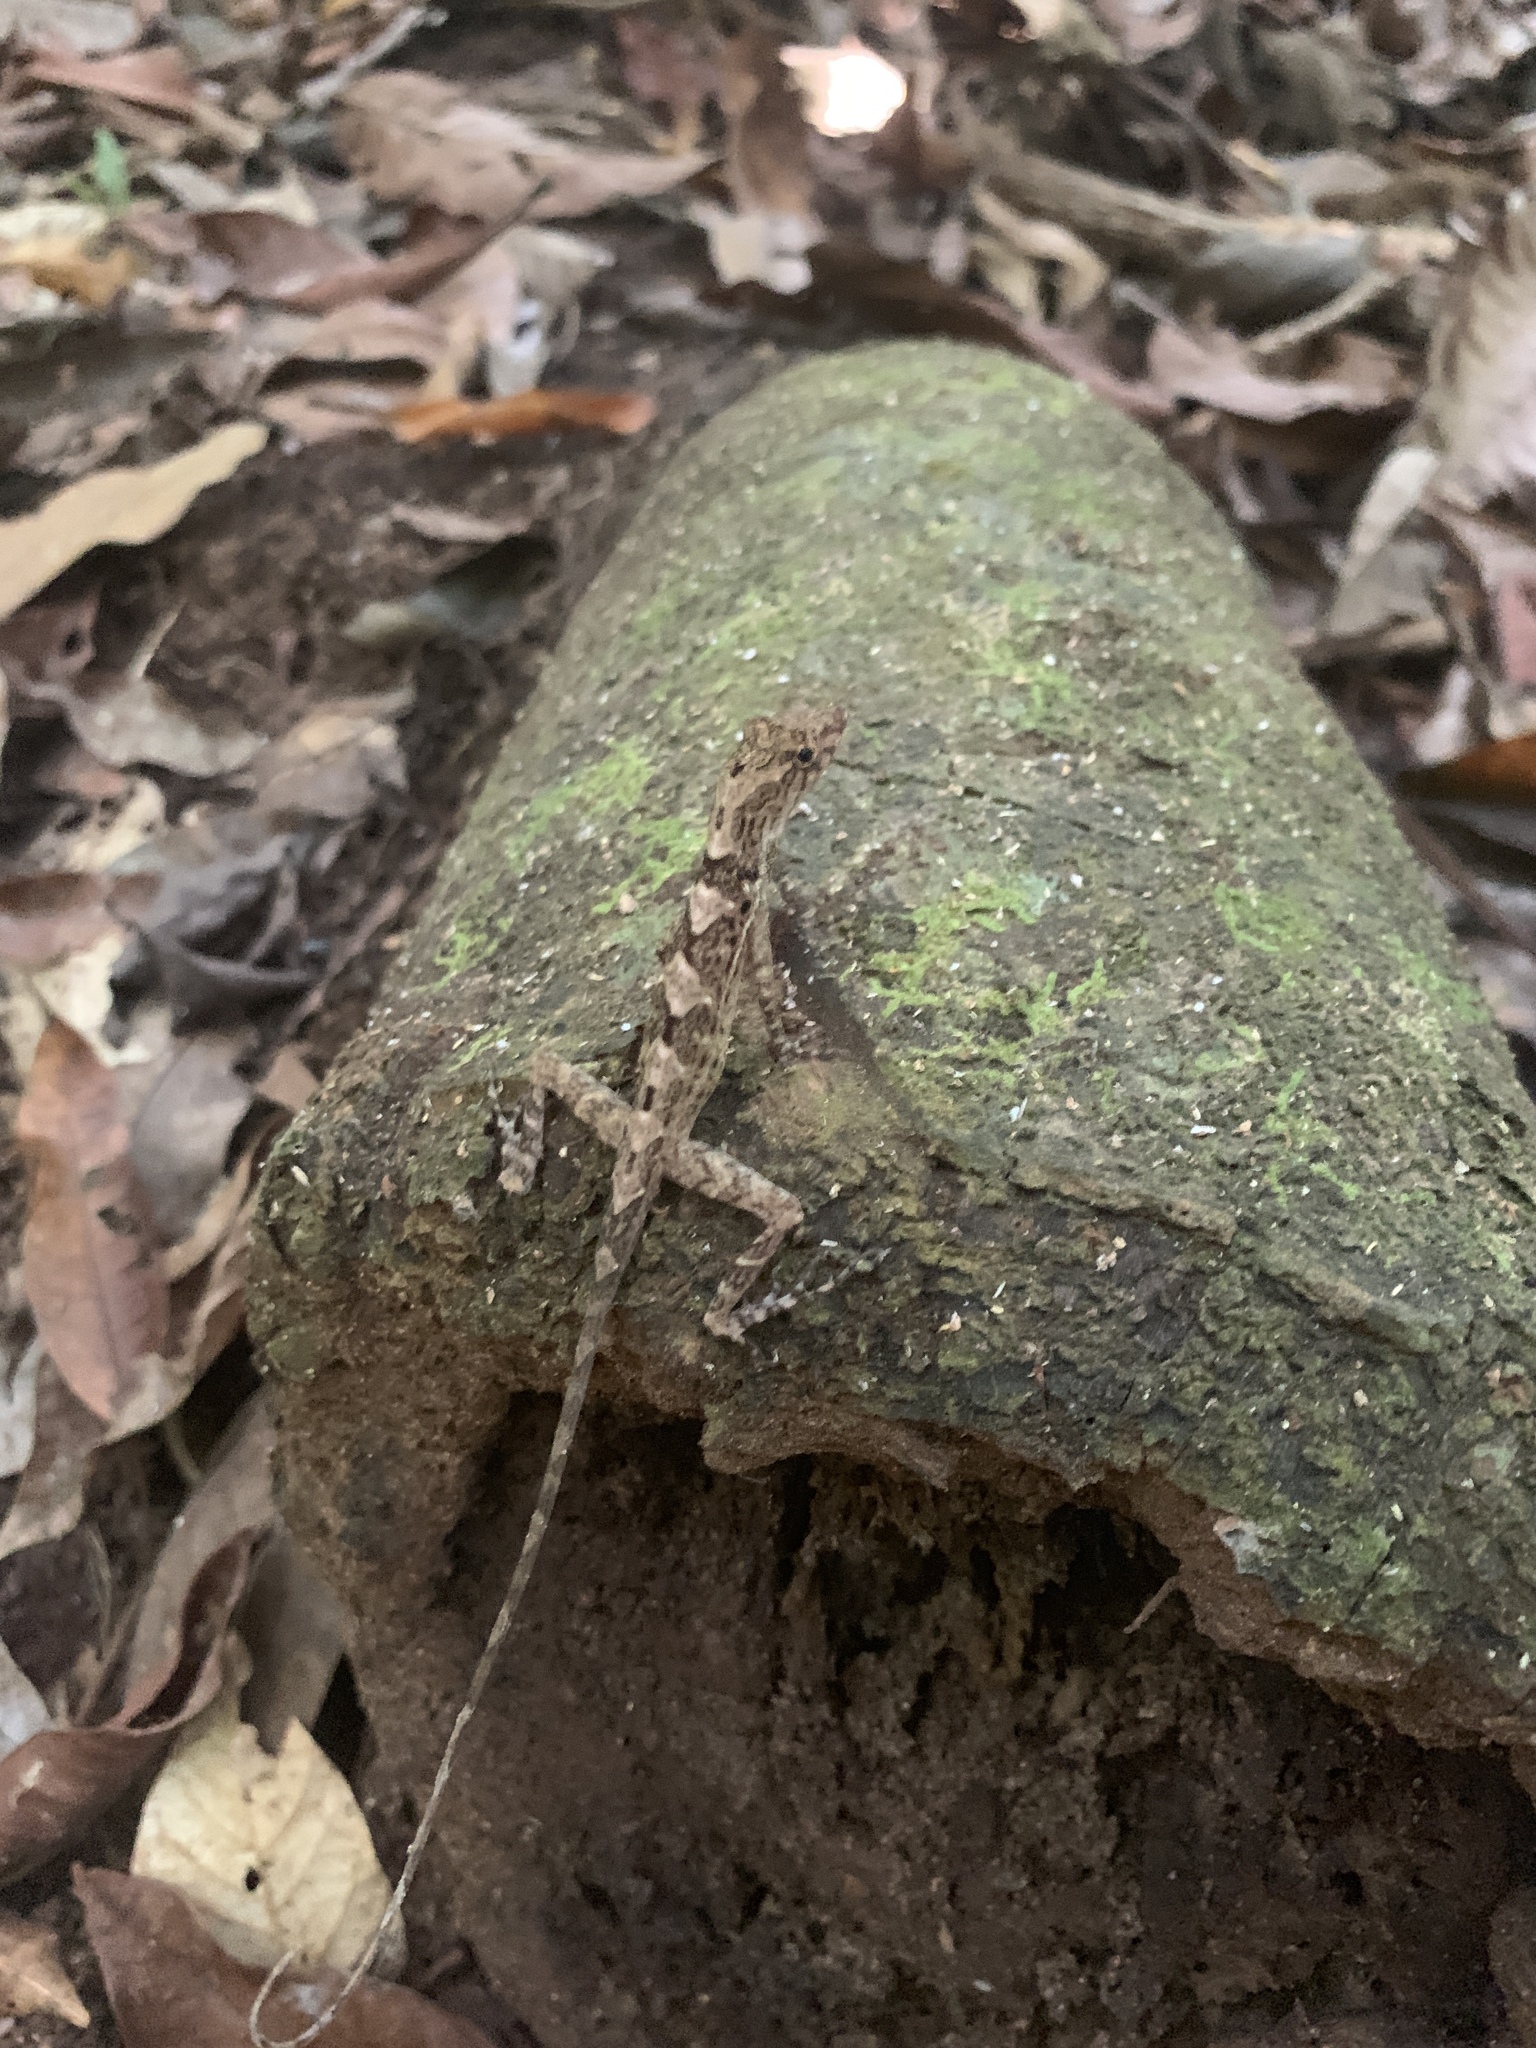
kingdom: Animalia
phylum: Chordata
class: Squamata
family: Dactyloidae
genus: Anolis
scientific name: Anolis osa
